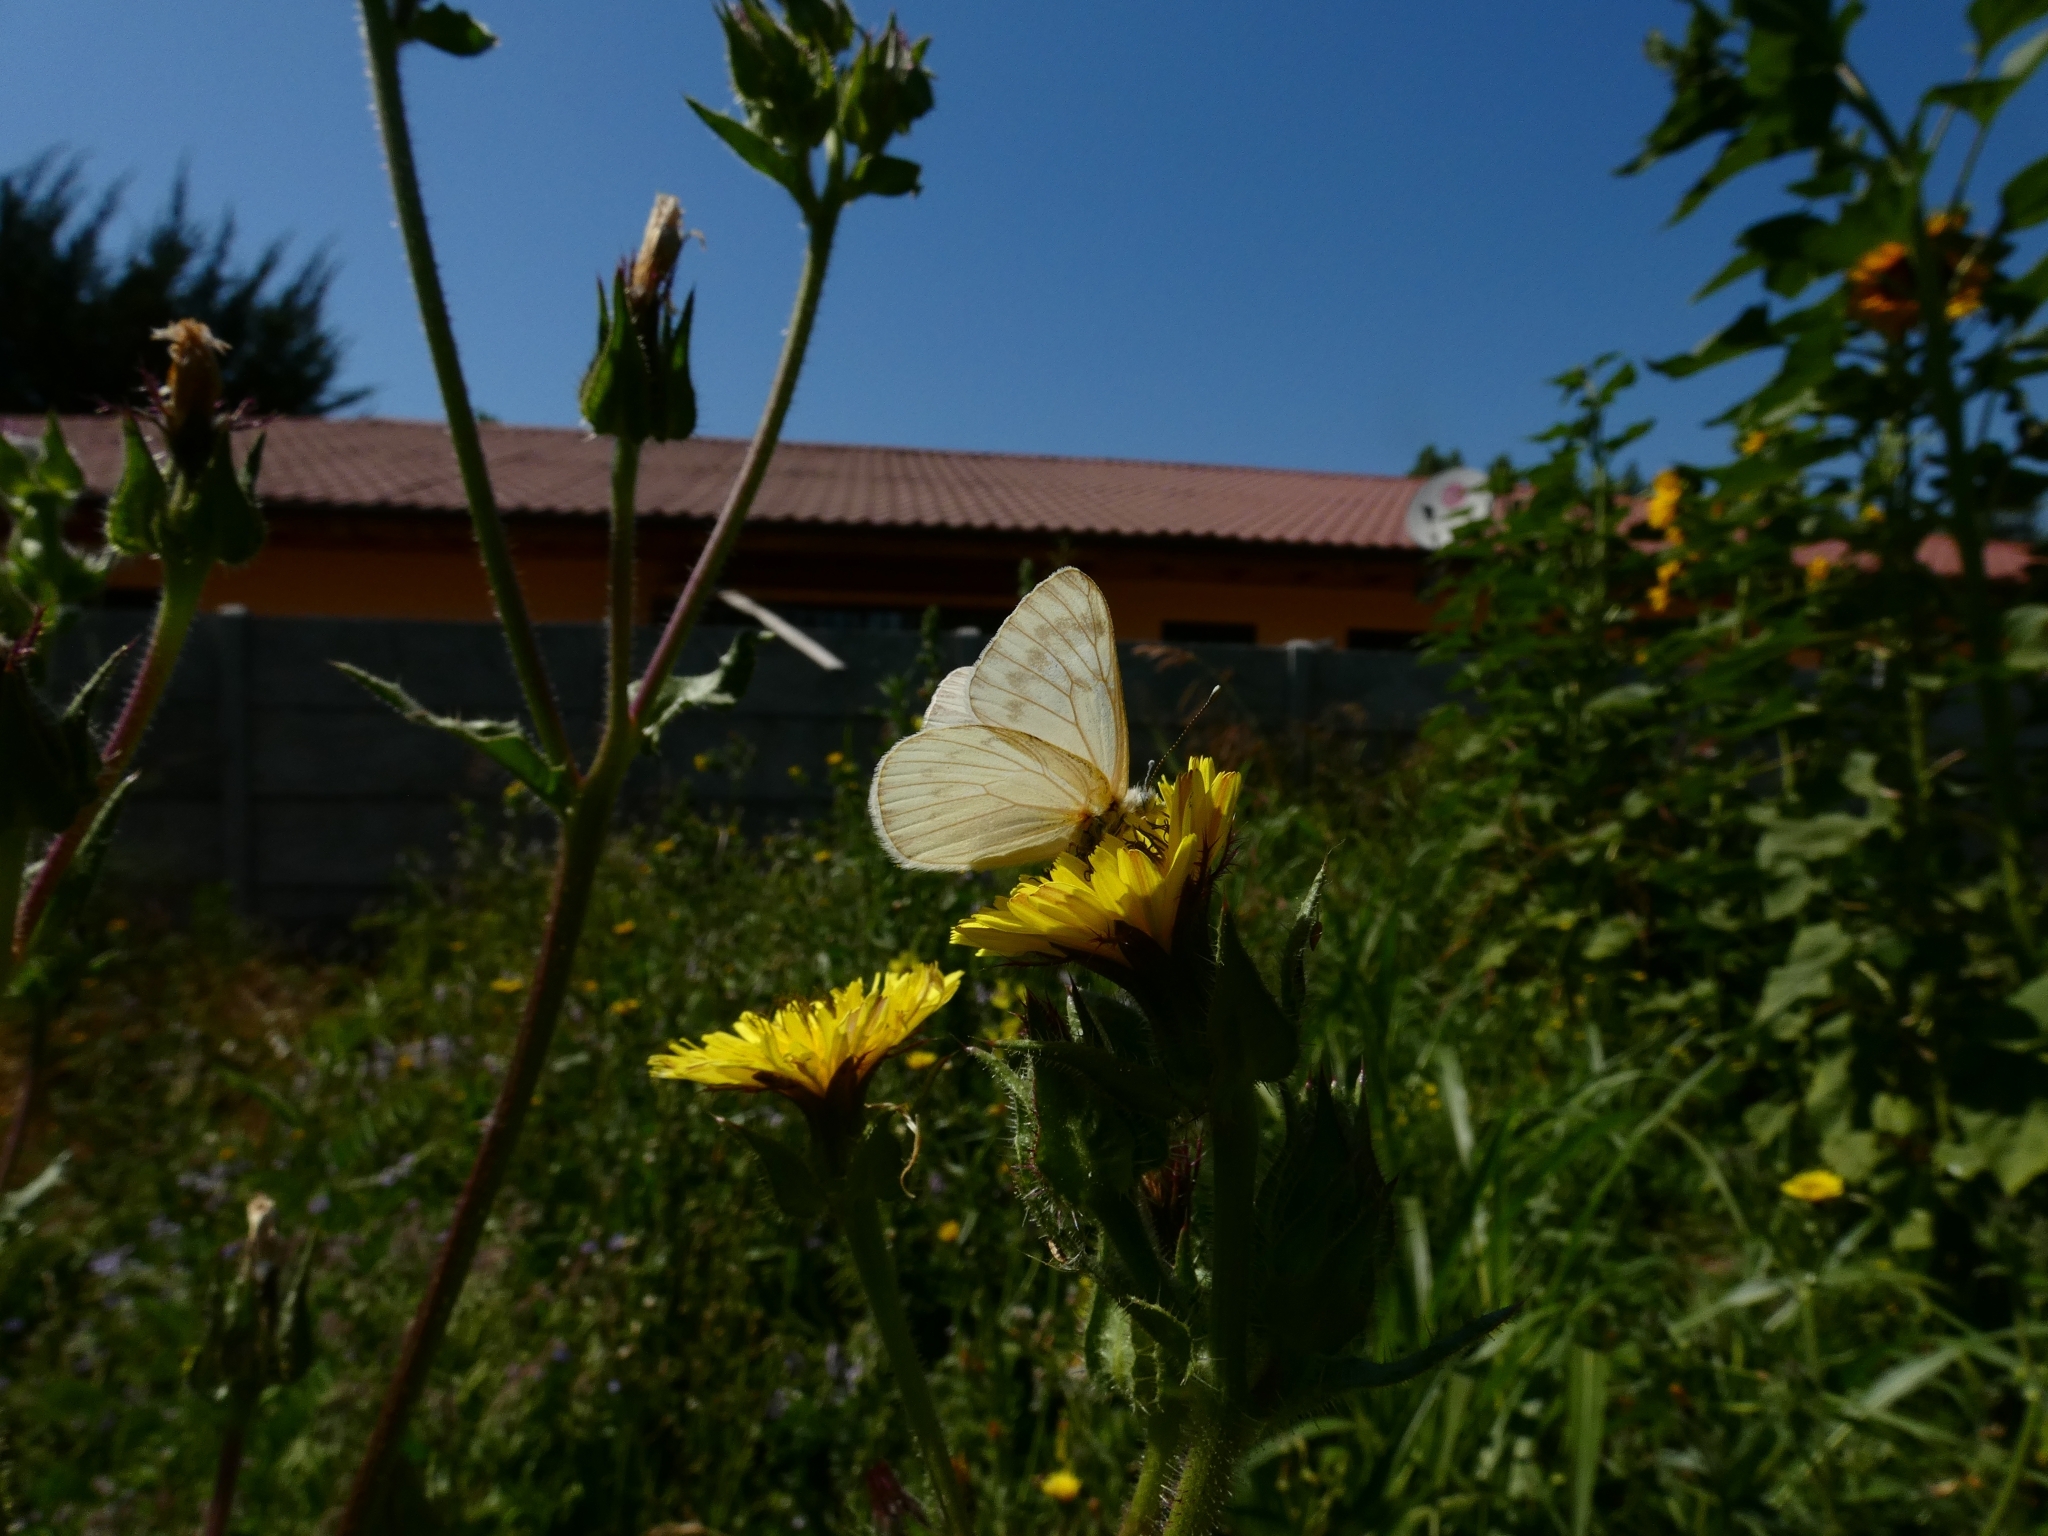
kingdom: Animalia
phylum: Arthropoda
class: Insecta
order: Lepidoptera
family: Pieridae
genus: Tatochila
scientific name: Tatochila mercedis
